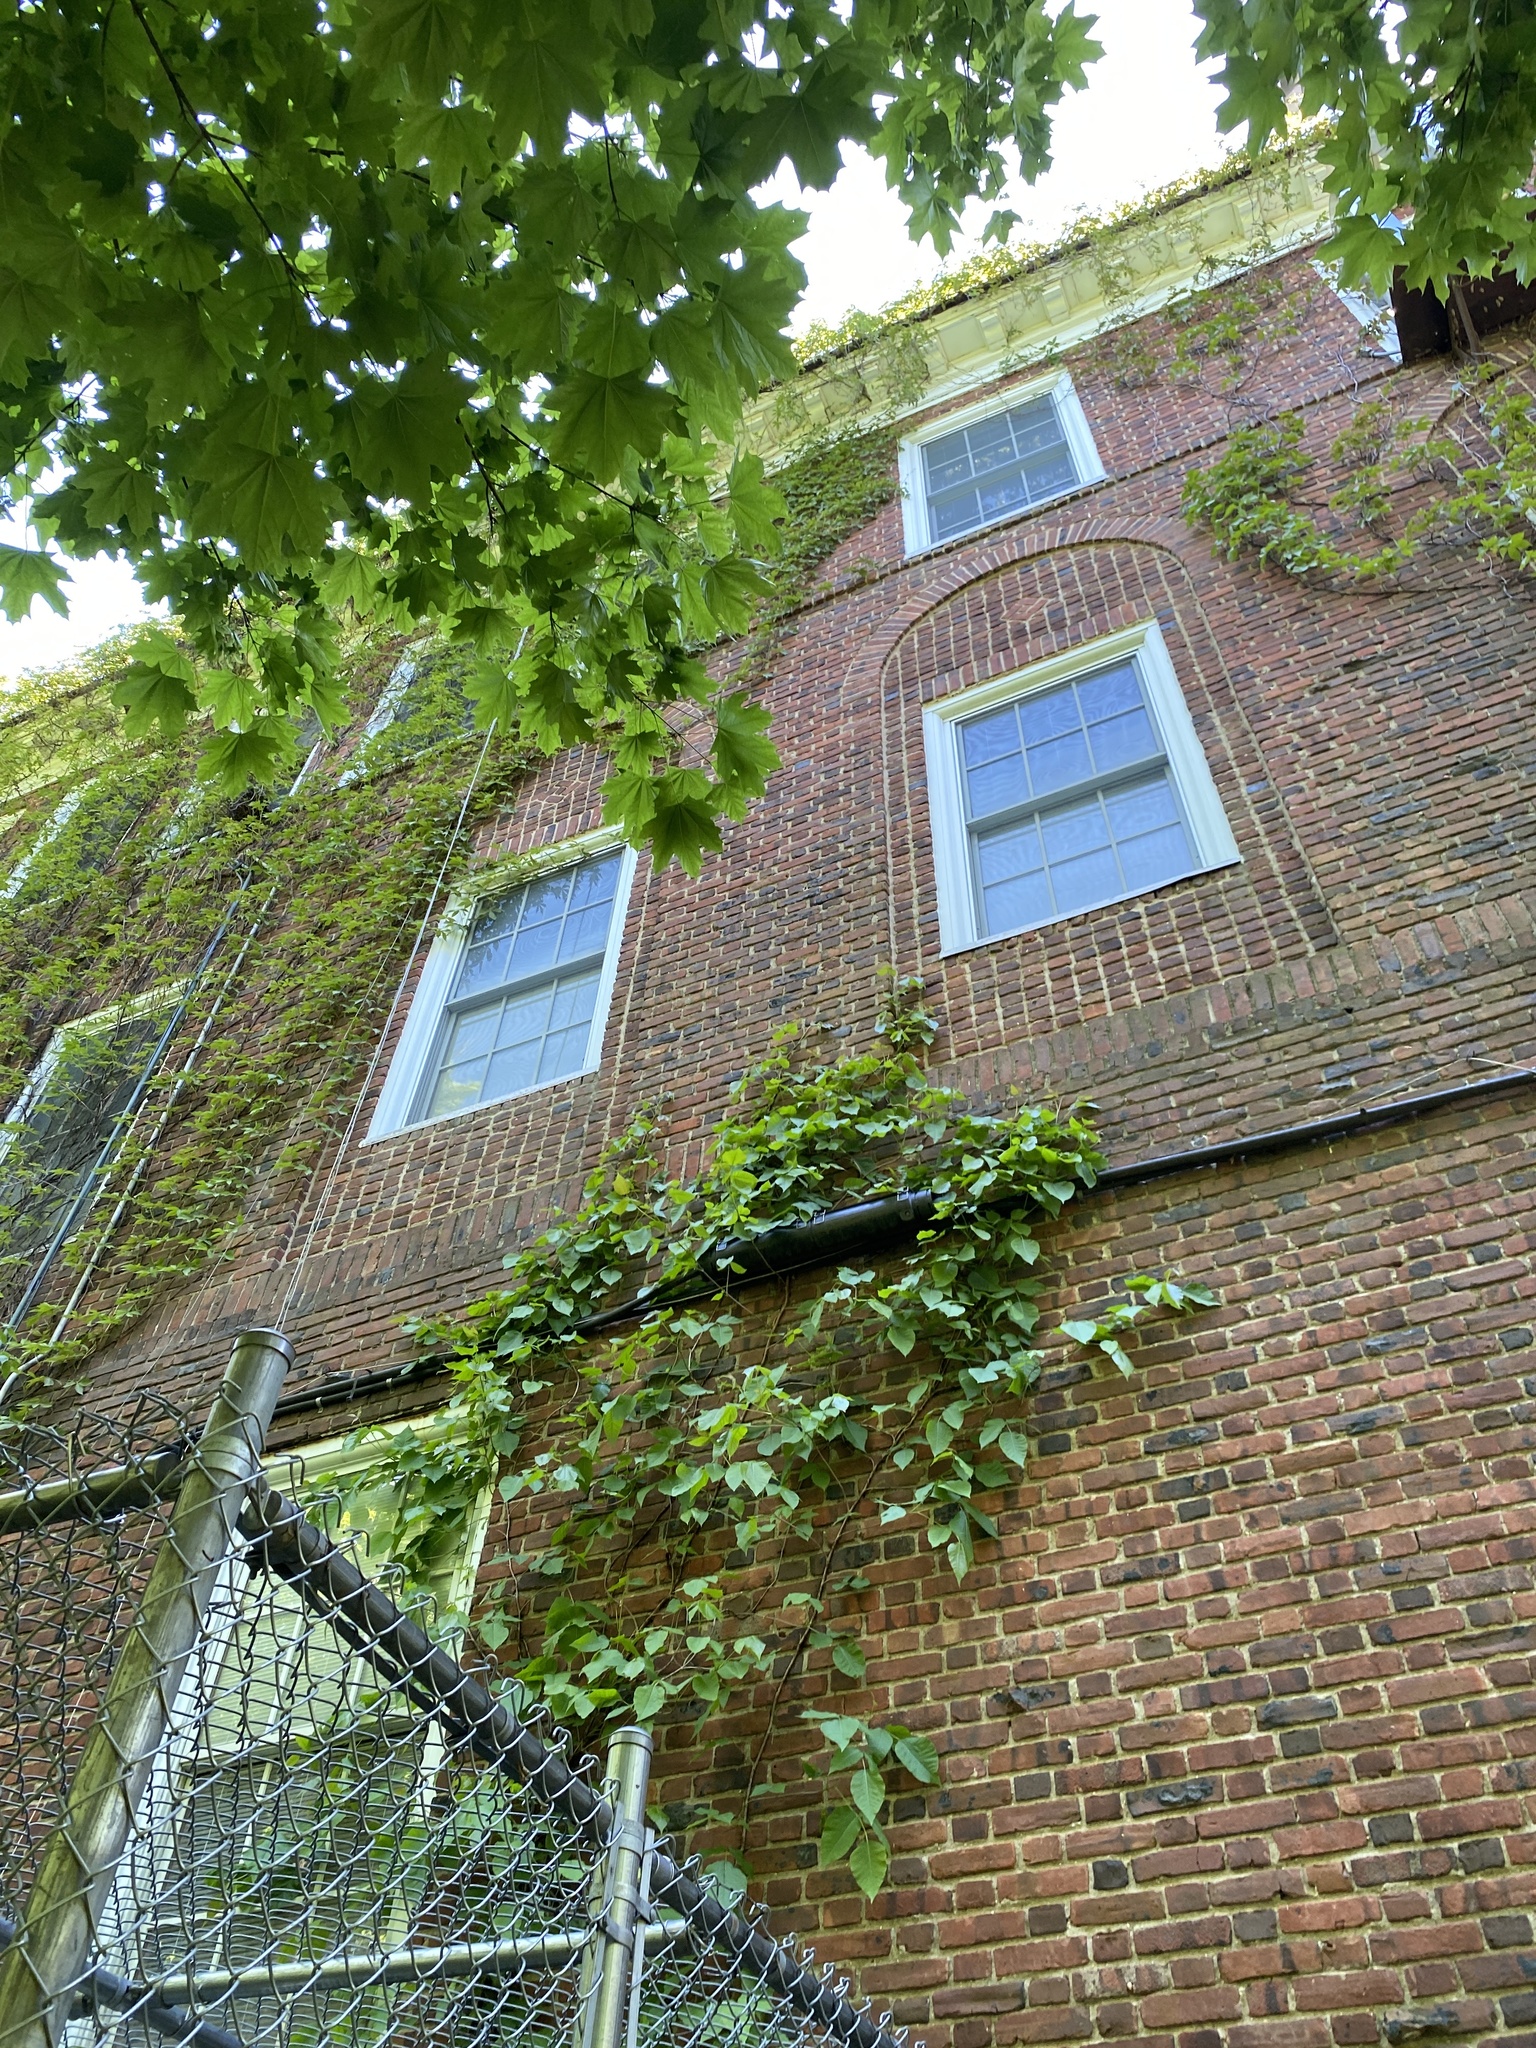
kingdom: Plantae
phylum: Tracheophyta
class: Magnoliopsida
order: Sapindales
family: Anacardiaceae
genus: Toxicodendron
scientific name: Toxicodendron radicans
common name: Poison ivy
